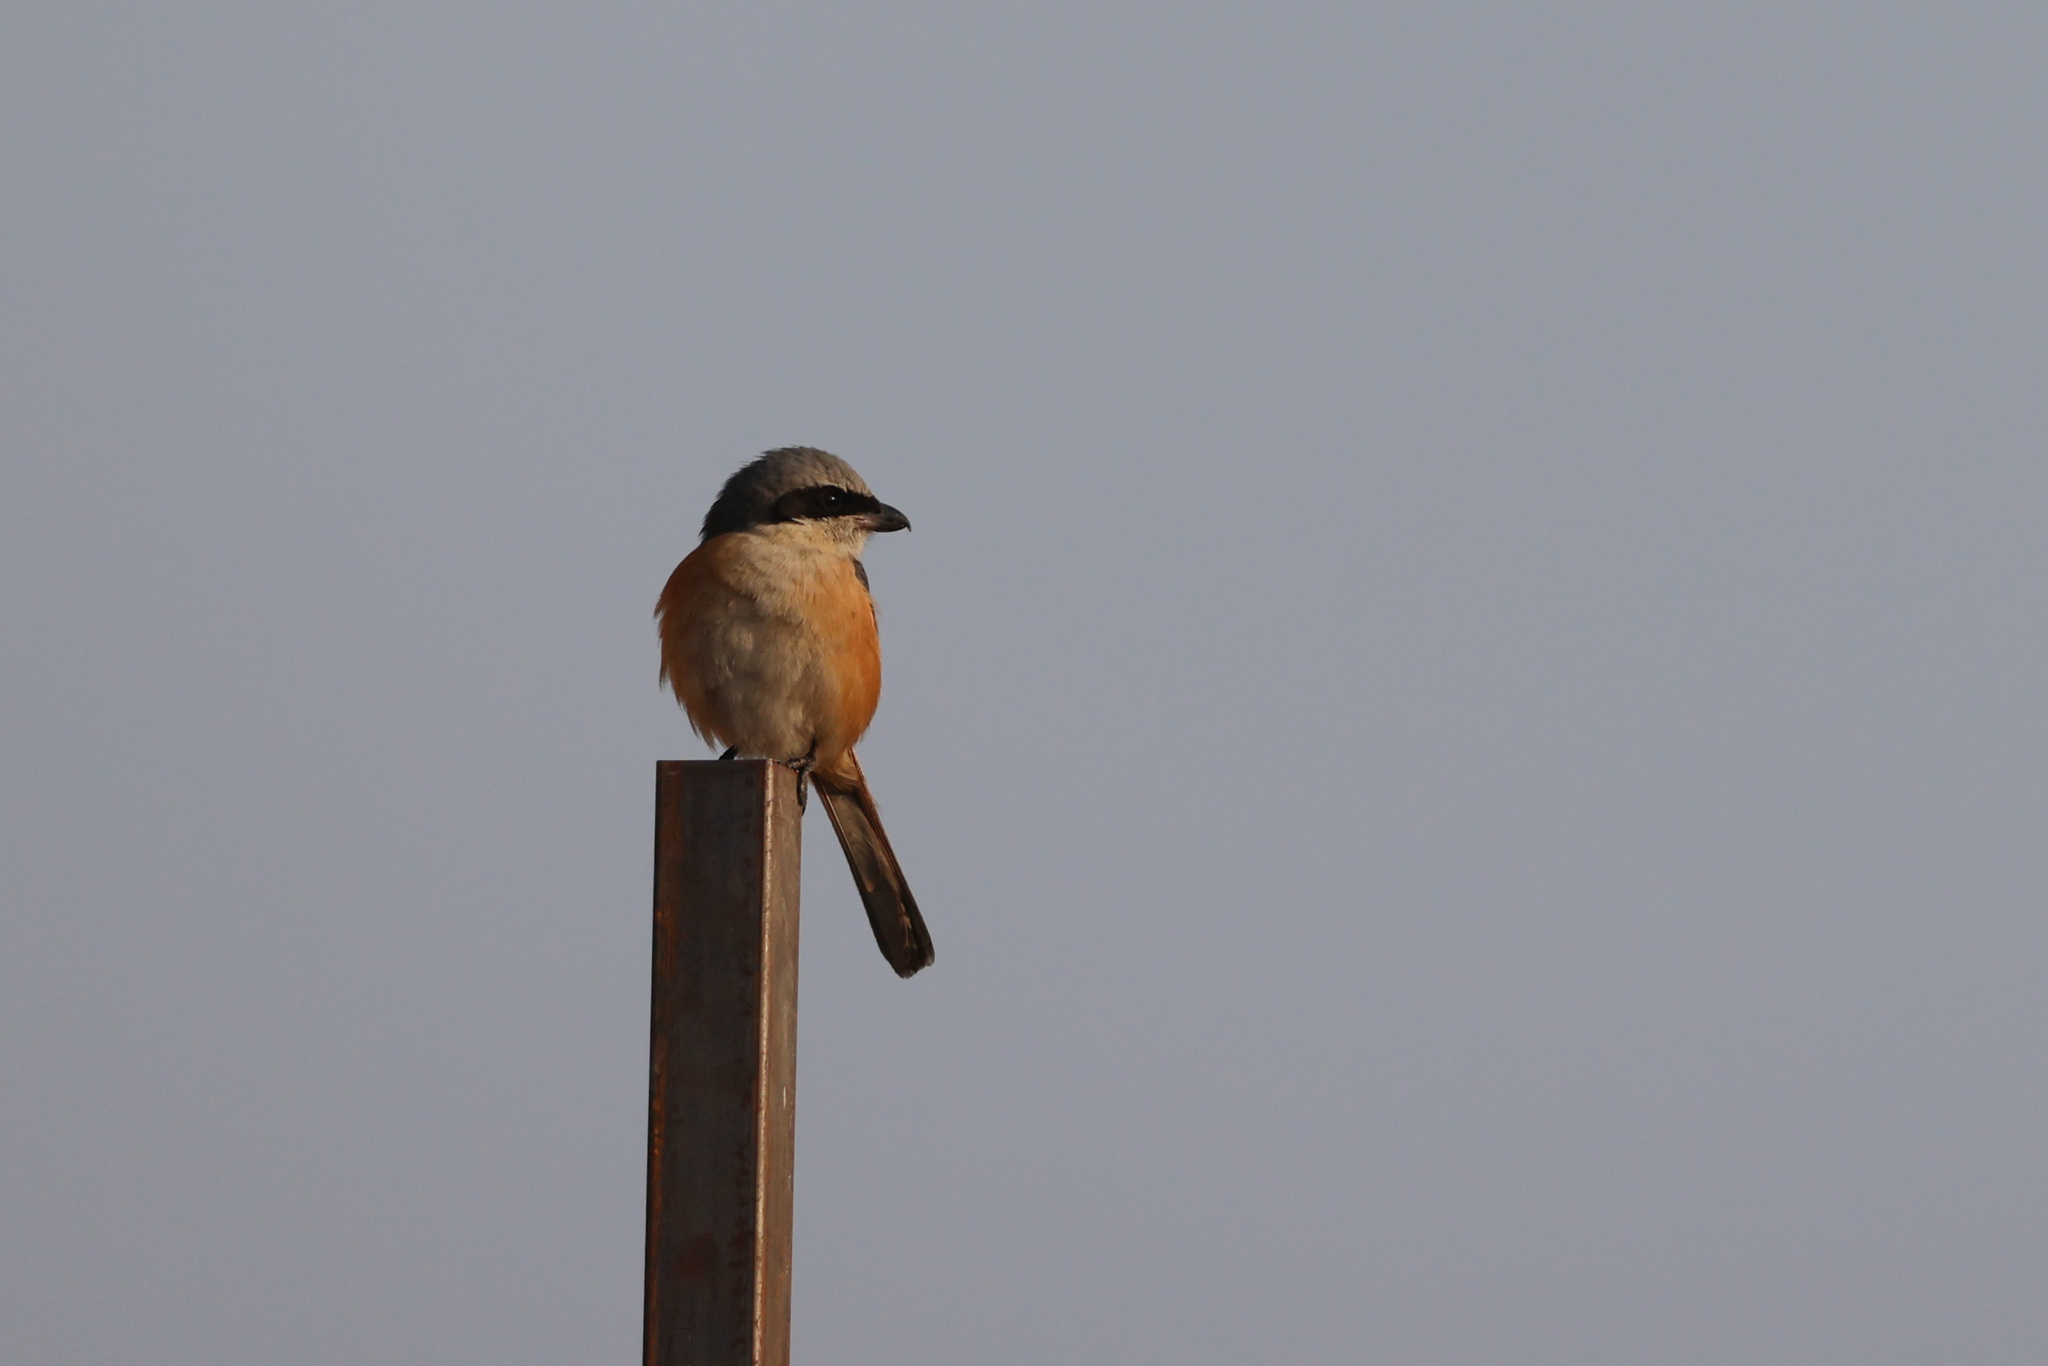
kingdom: Animalia
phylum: Chordata
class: Aves
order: Passeriformes
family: Laniidae
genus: Lanius
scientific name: Lanius tephronotus
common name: Grey-backed shrike
